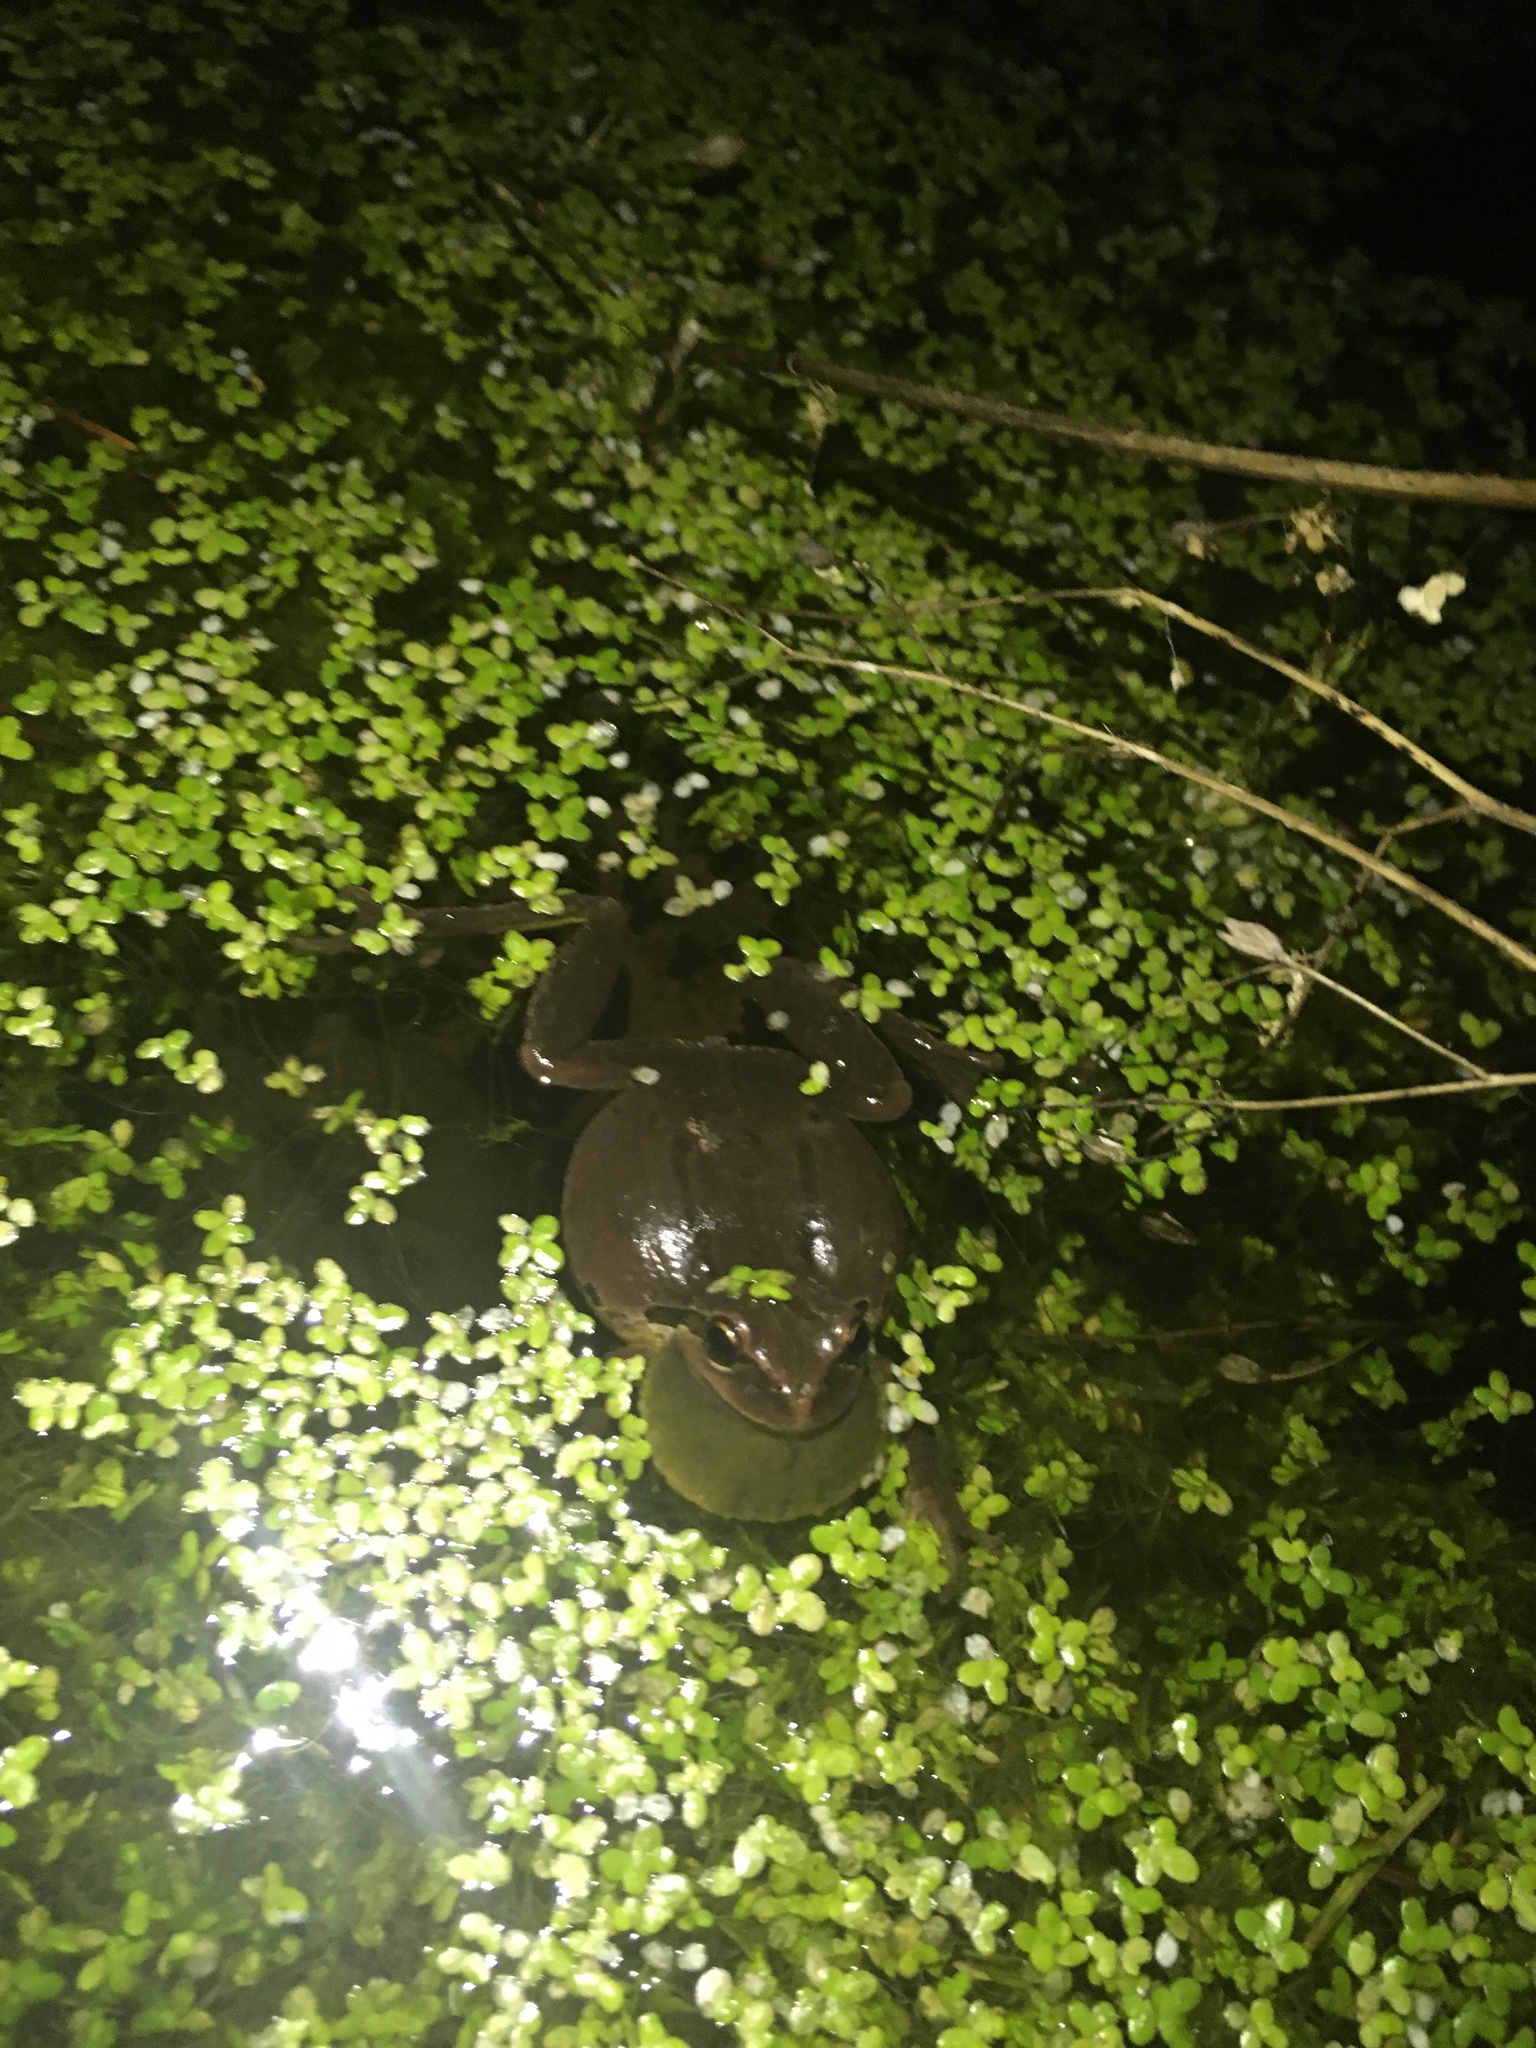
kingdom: Animalia
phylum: Chordata
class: Amphibia
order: Anura
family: Hylidae
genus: Pseudacris
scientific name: Pseudacris regilla
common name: Pacific chorus frog
